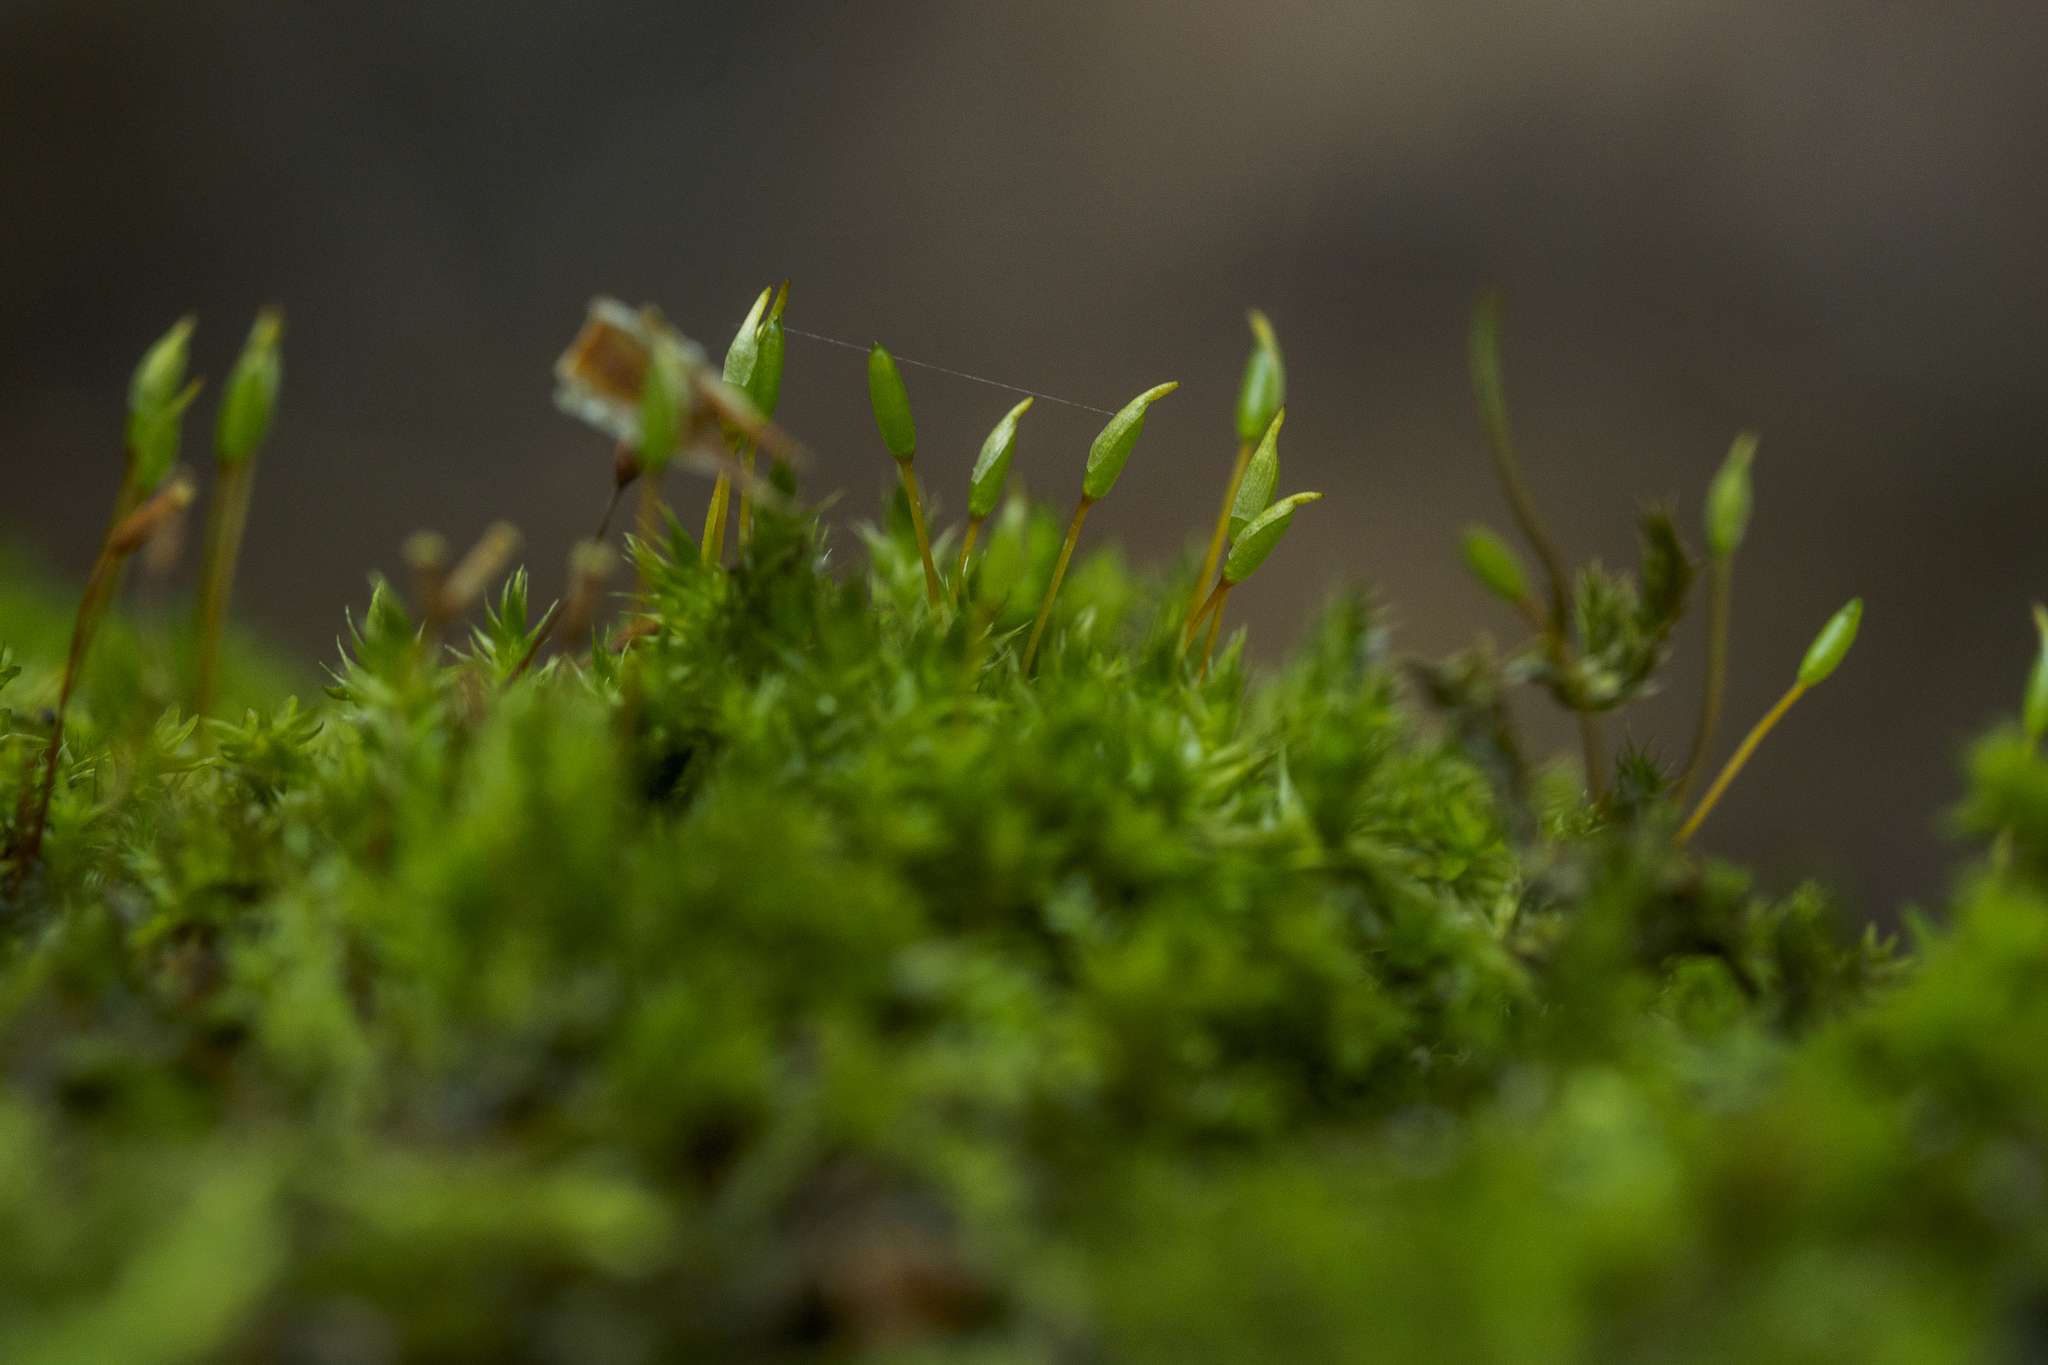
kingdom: Plantae
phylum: Bryophyta
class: Bryopsida
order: Hypnales
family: Pylaisiadelphaceae
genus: Platygyrium
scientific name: Platygyrium repens
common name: Flat-brocade moss
